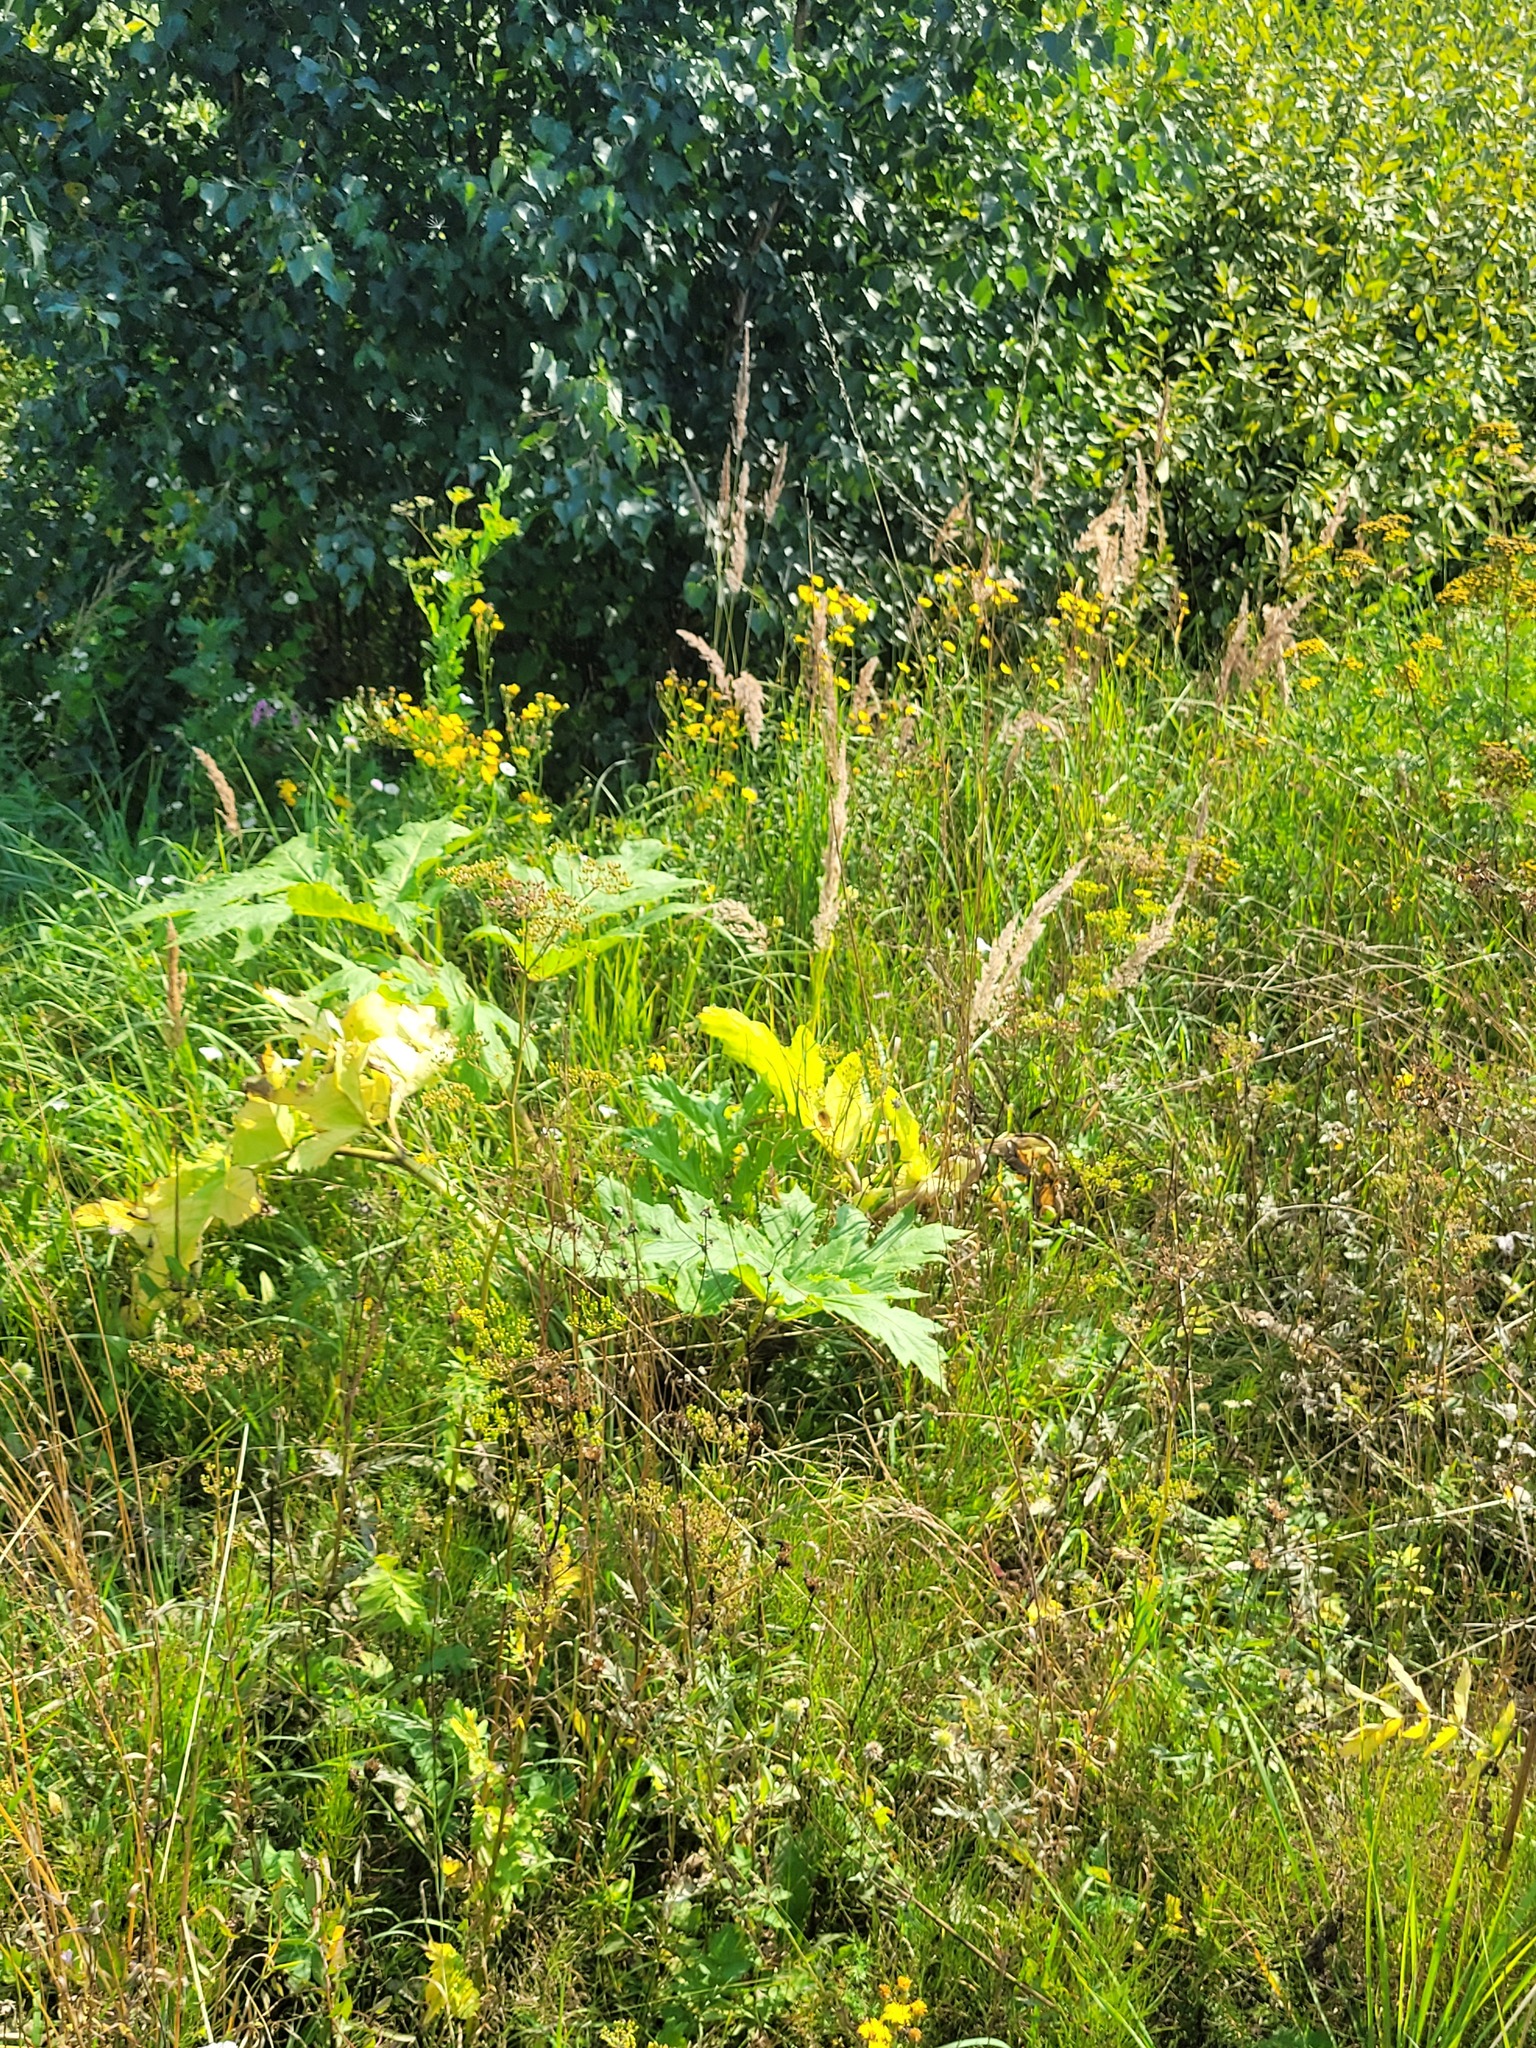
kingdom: Plantae
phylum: Tracheophyta
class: Magnoliopsida
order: Apiales
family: Apiaceae
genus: Heracleum
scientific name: Heracleum sosnowskyi
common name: Sosnowsky's hogweed
